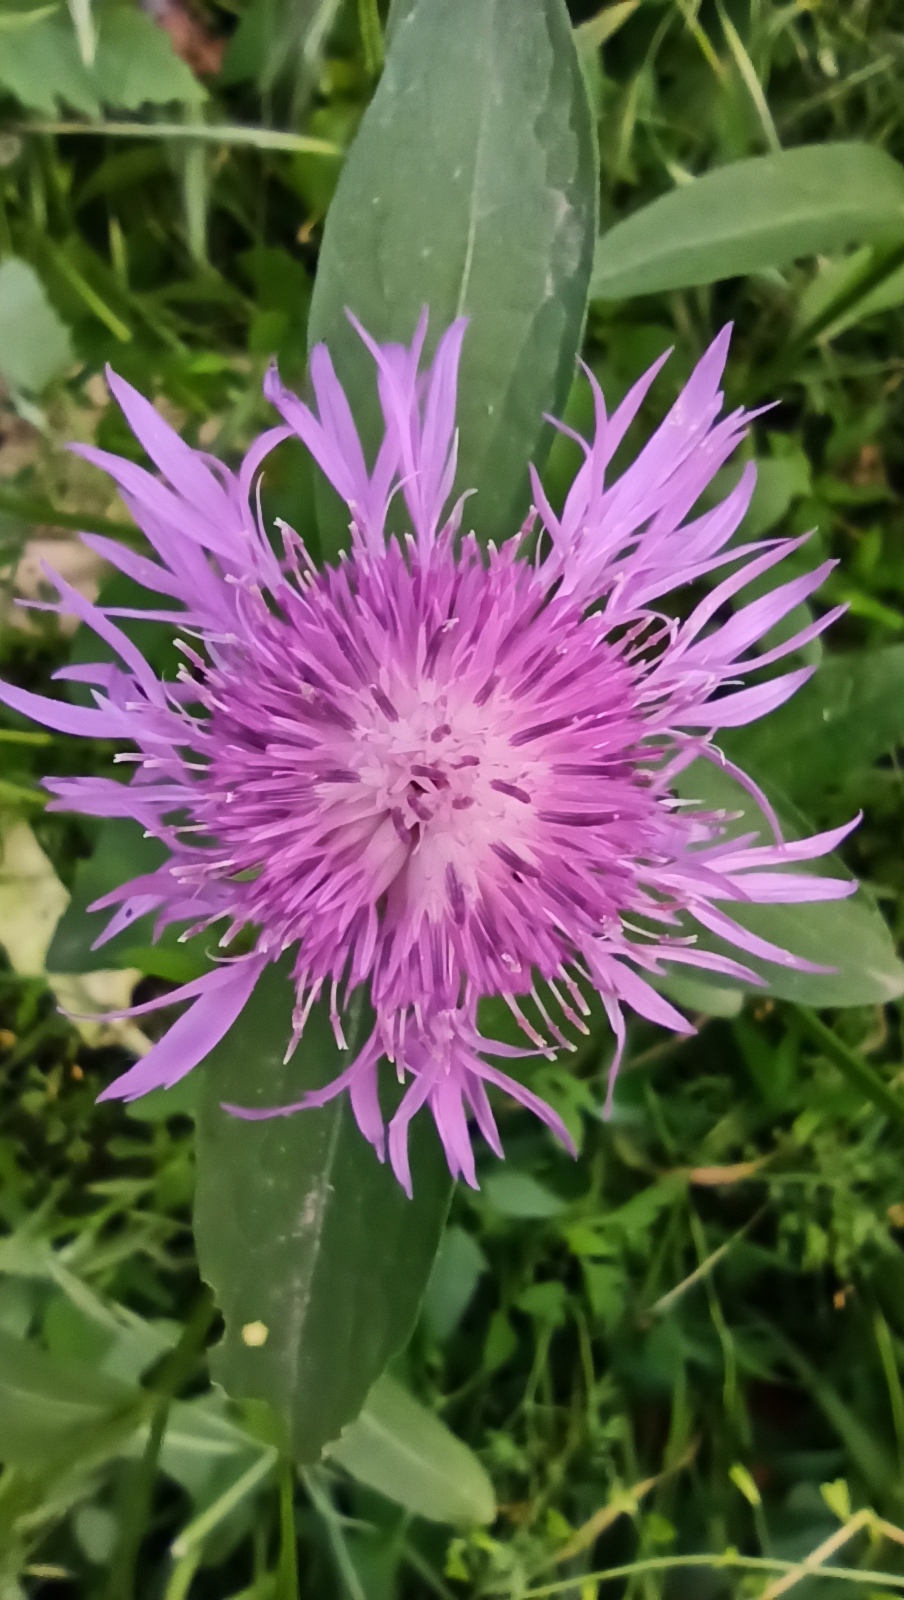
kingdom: Plantae
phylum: Tracheophyta
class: Magnoliopsida
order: Asterales
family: Asteraceae
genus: Centaurea
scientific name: Centaurea jacea
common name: Brown knapweed
